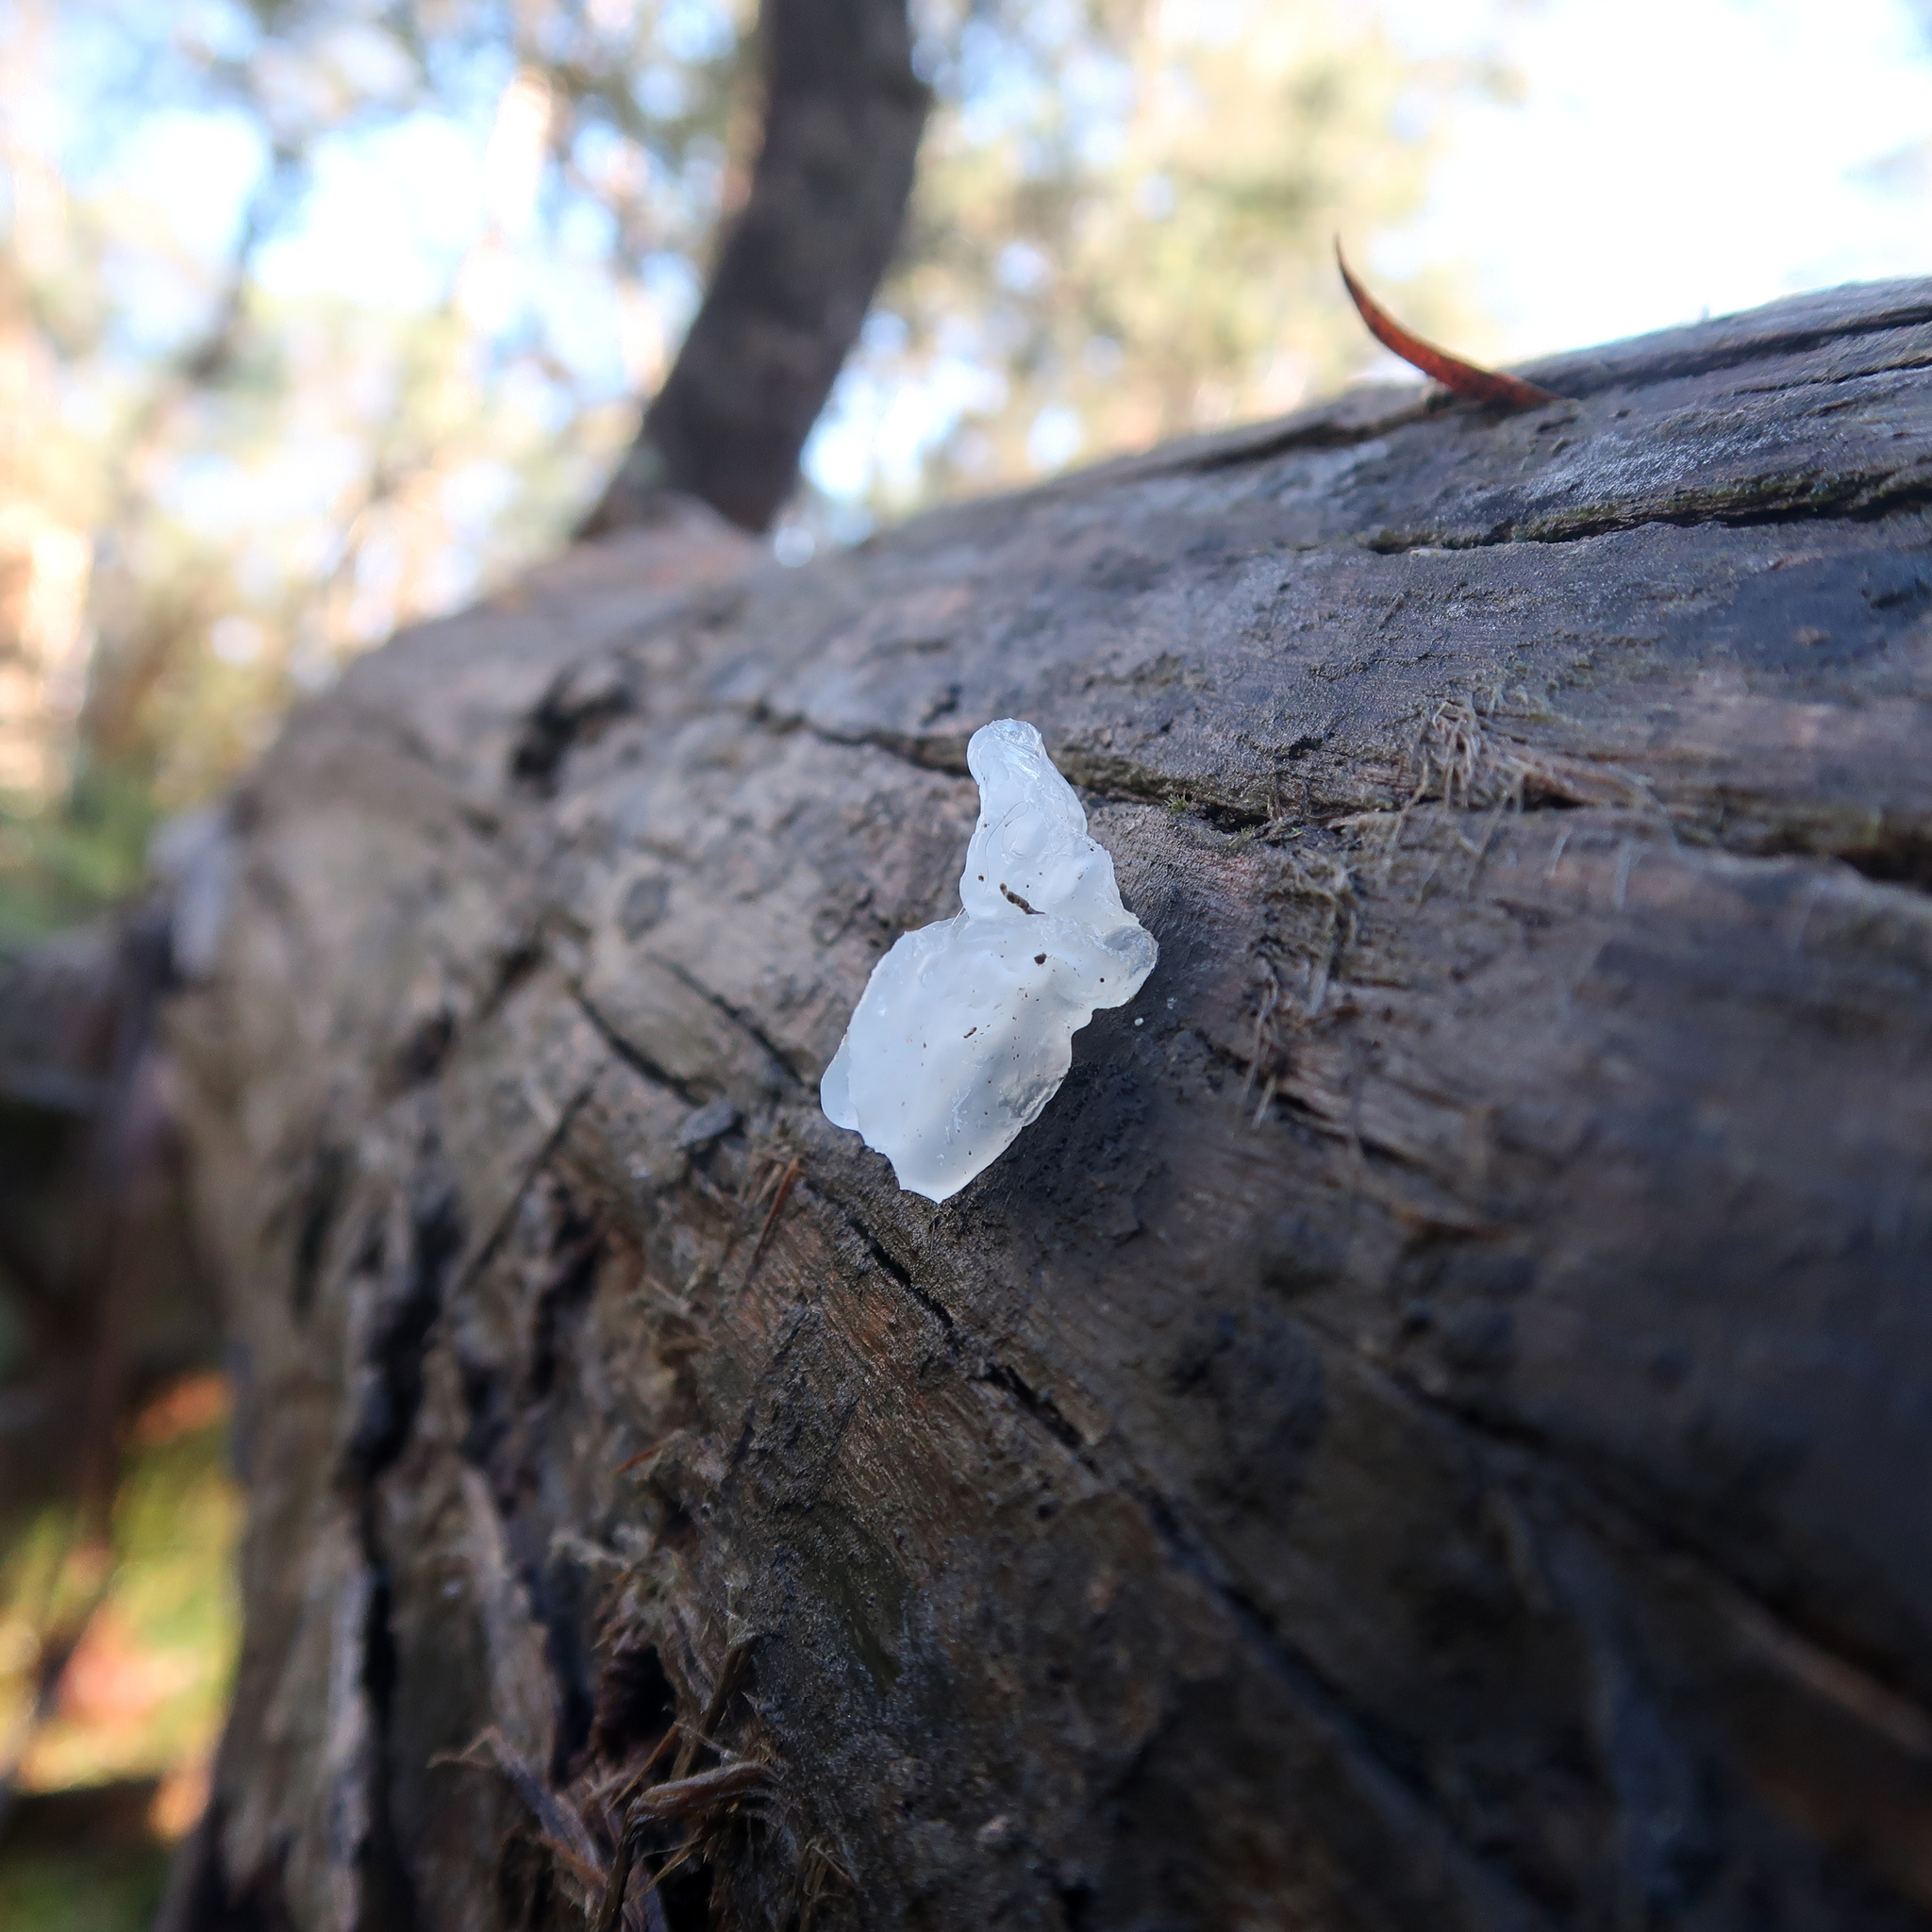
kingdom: Fungi
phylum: Basidiomycota
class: Tremellomycetes
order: Tremellales
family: Tremellaceae
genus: Tremella
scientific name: Tremella fuciformis
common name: Snow fungus
